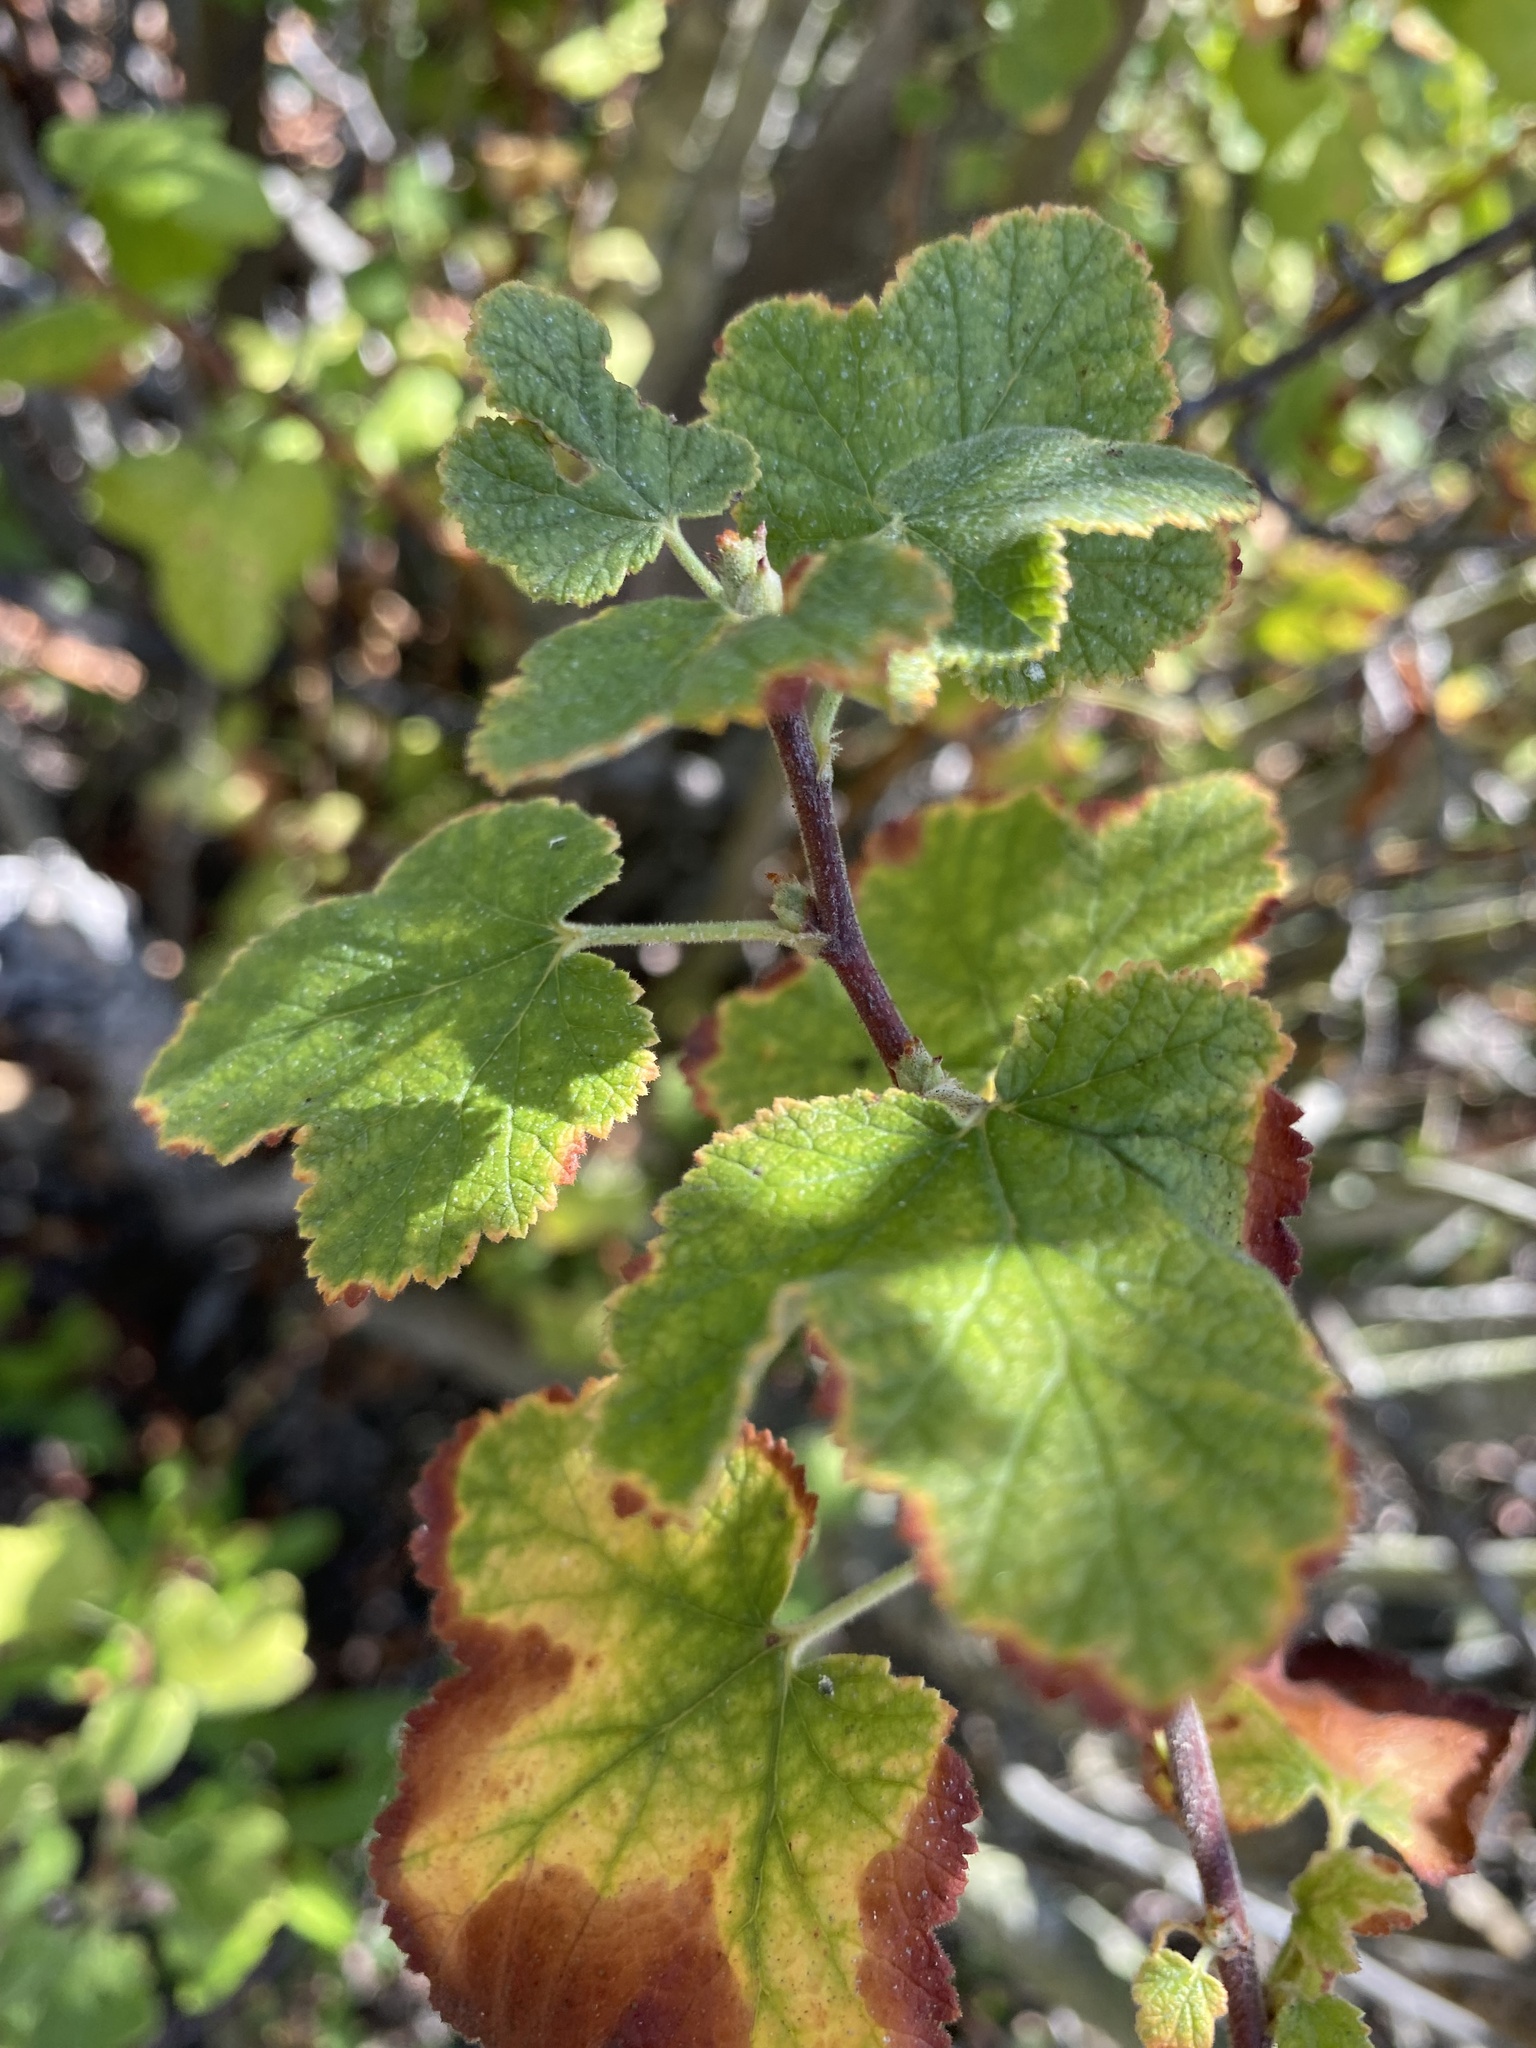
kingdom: Plantae
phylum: Tracheophyta
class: Magnoliopsida
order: Saxifragales
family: Grossulariaceae
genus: Ribes
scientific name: Ribes malvaceum
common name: Chaparral currant
